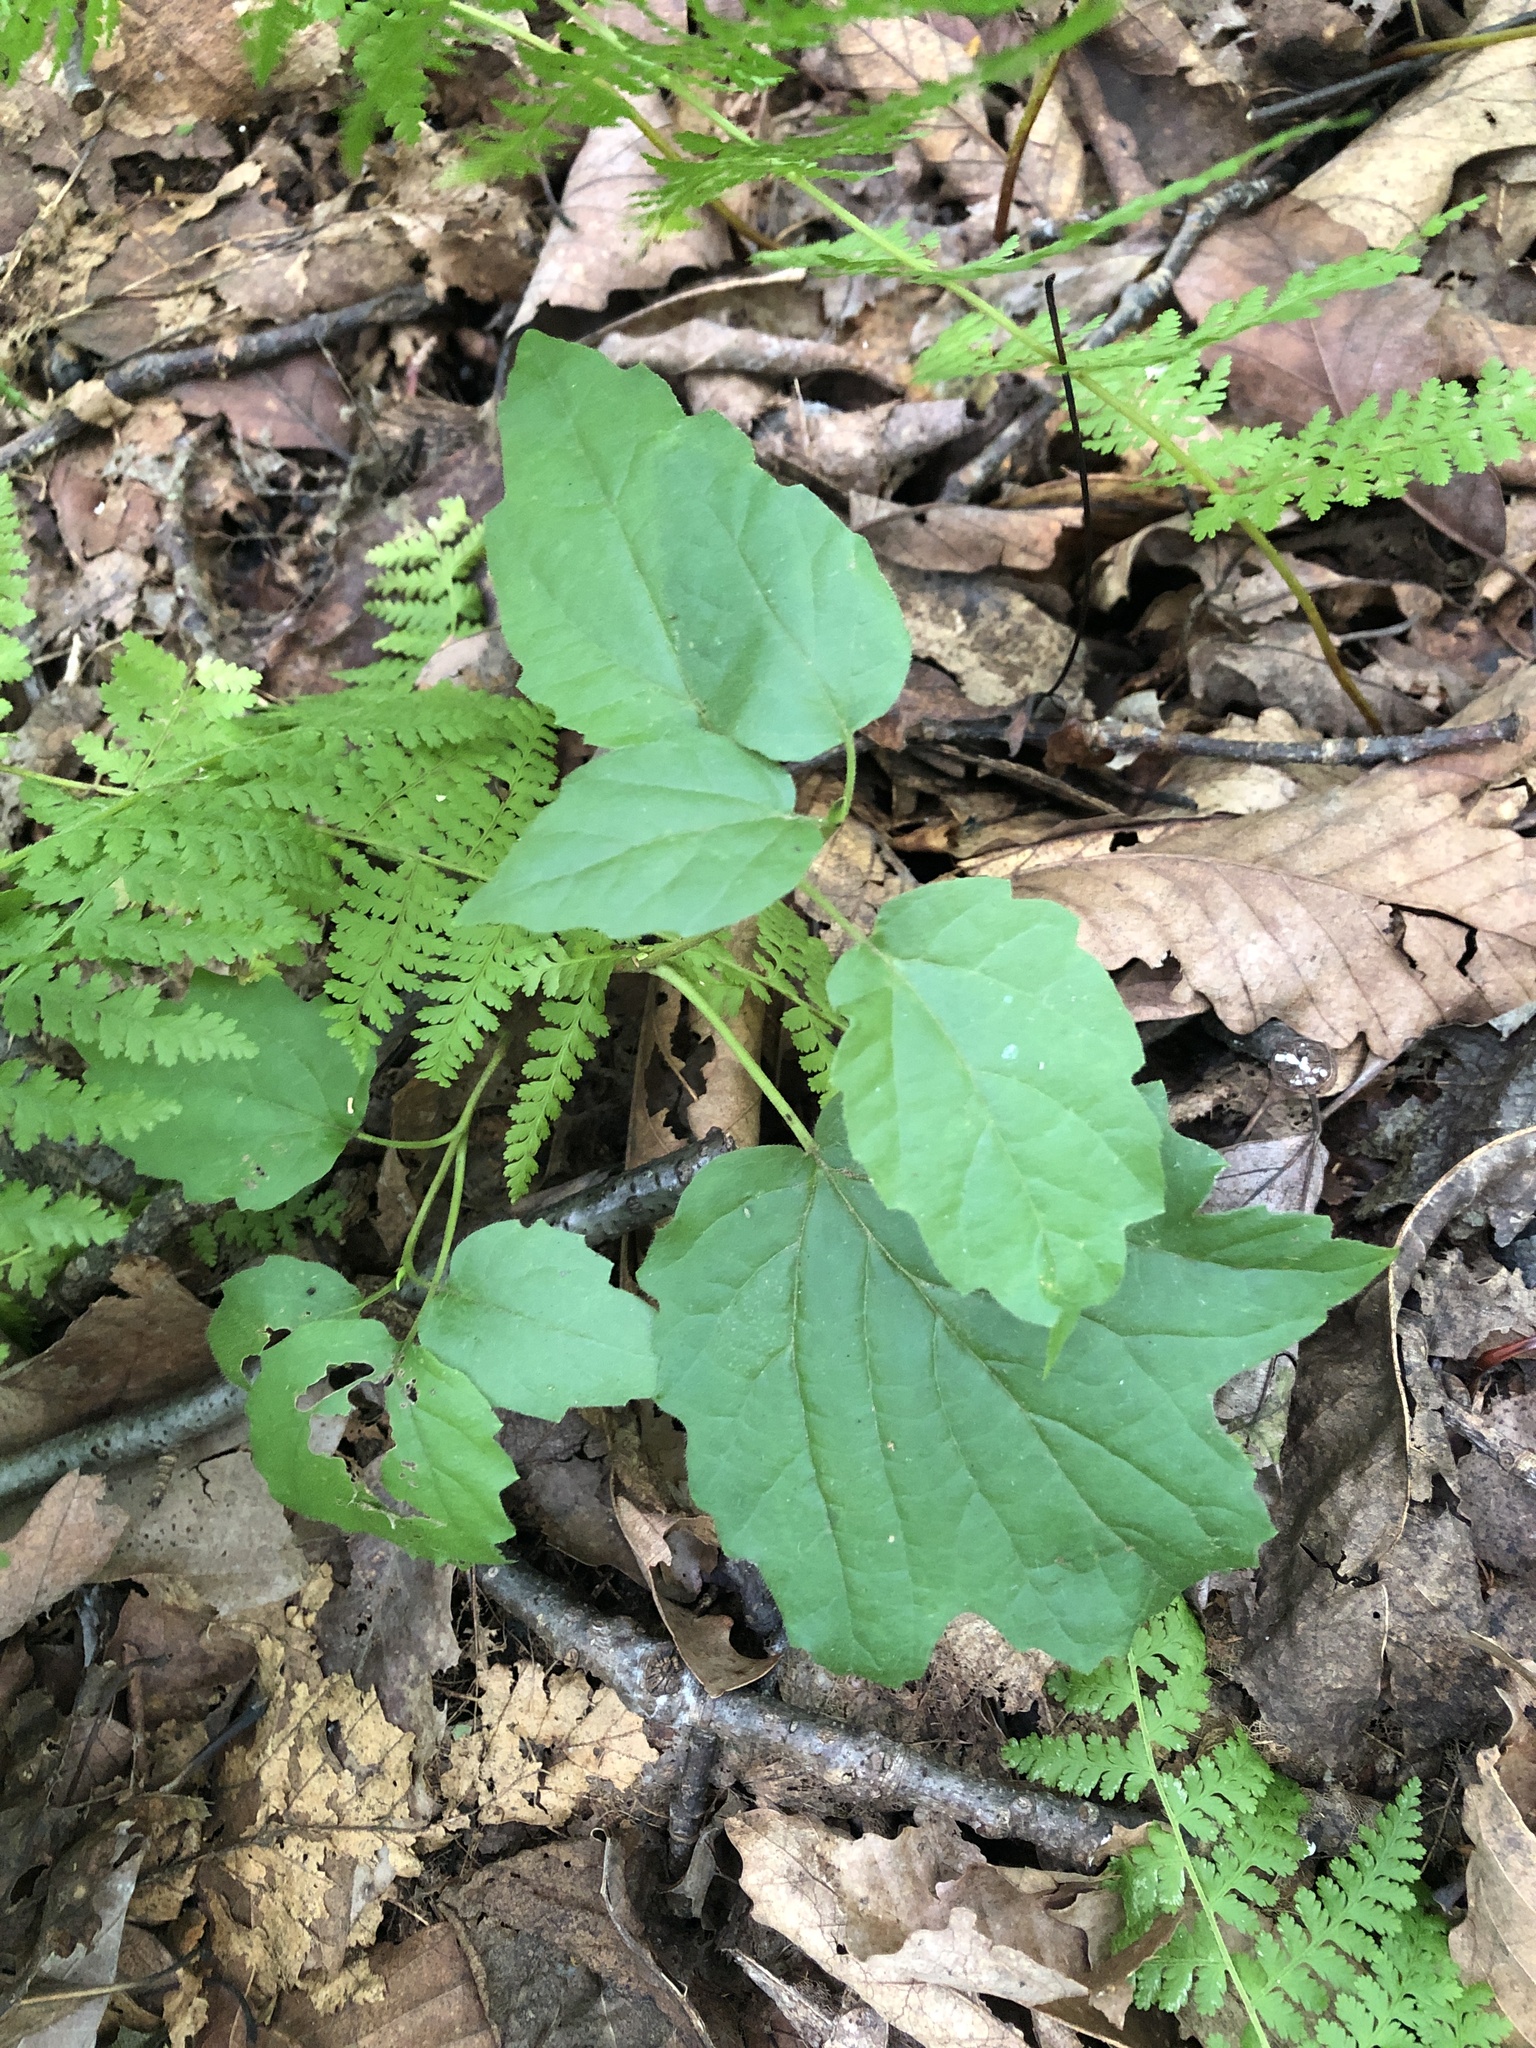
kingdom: Plantae
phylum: Tracheophyta
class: Magnoliopsida
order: Dipsacales
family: Viburnaceae
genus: Viburnum
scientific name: Viburnum acerifolium
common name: Dockmackie
